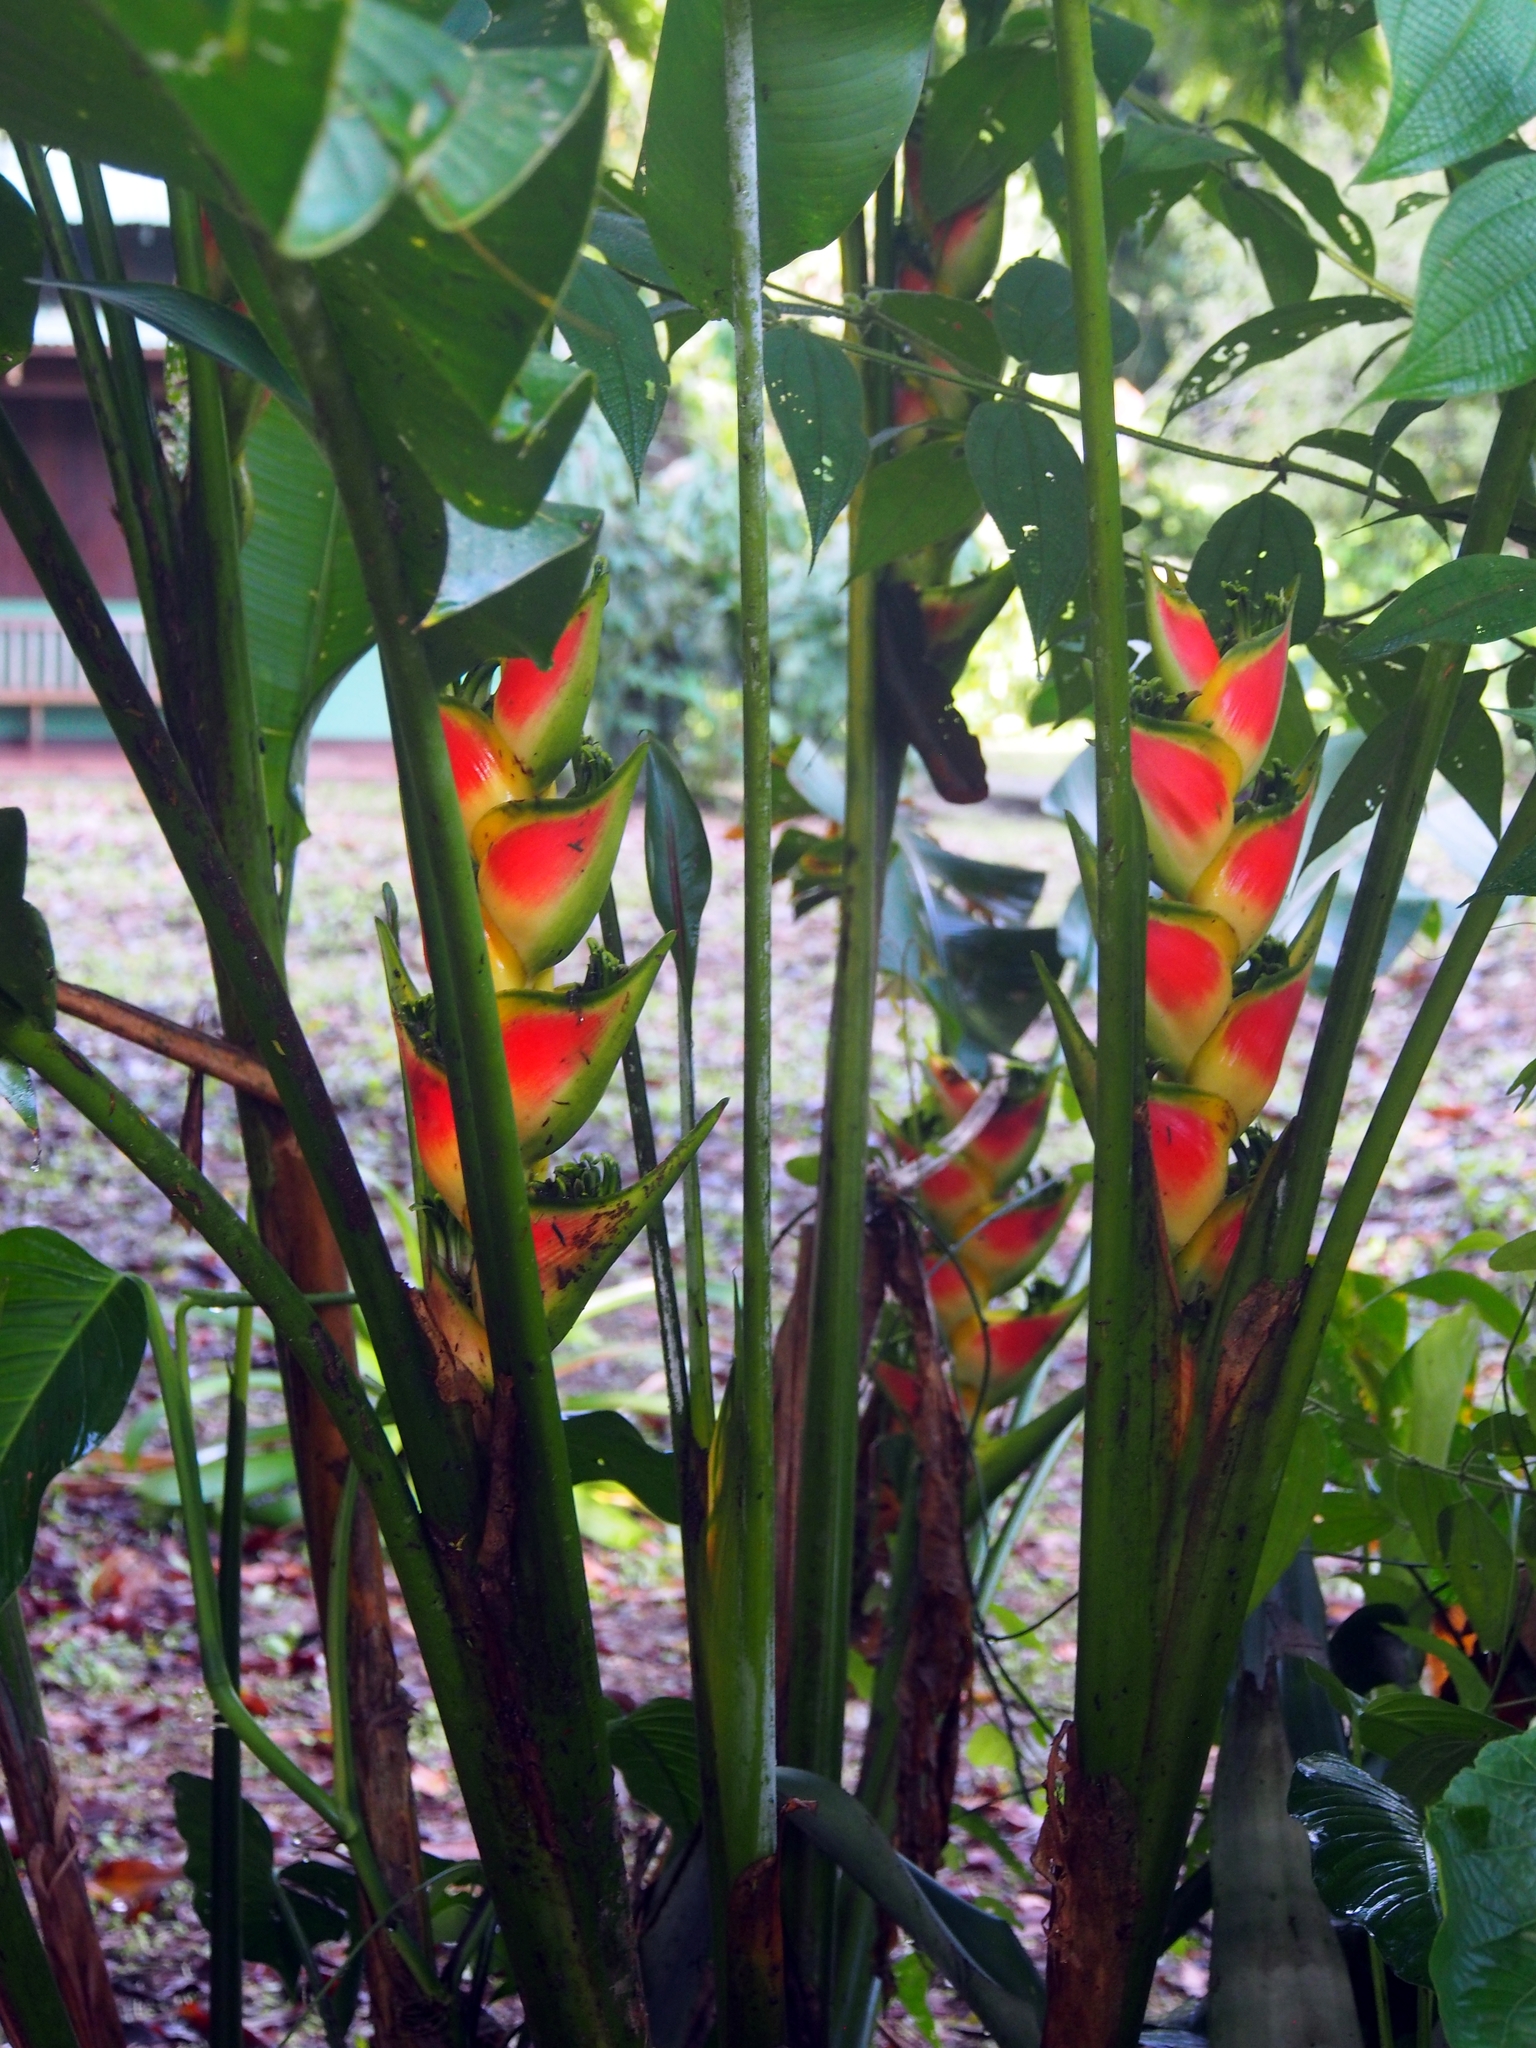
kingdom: Plantae
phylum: Tracheophyta
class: Liliopsida
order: Zingiberales
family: Heliconiaceae
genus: Heliconia
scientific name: Heliconia wagneriana
